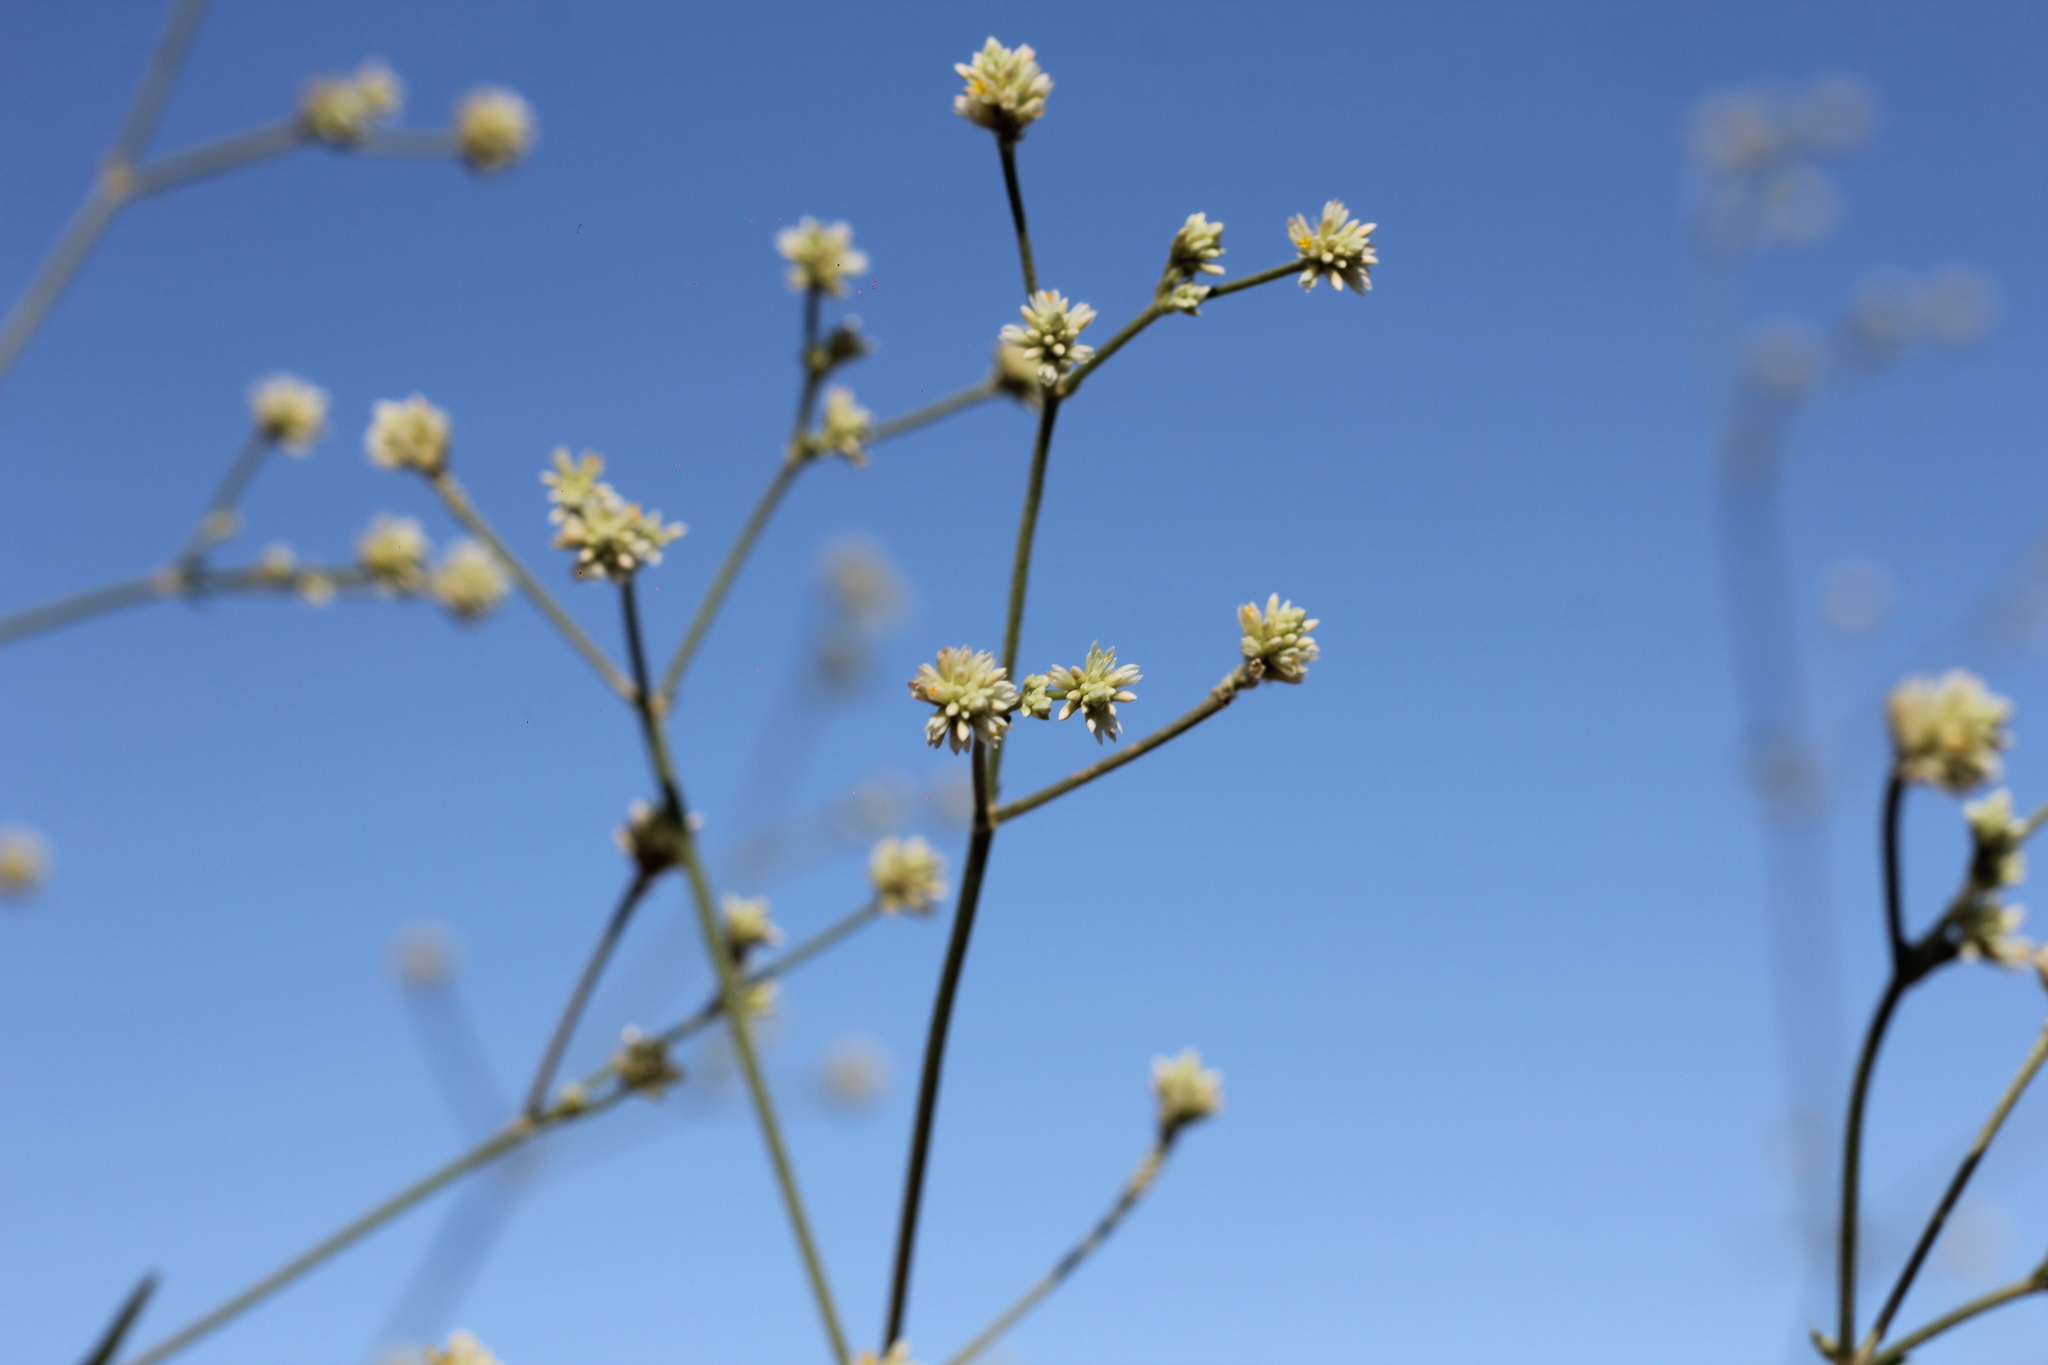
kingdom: Plantae
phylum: Tracheophyta
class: Magnoliopsida
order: Caryophyllales
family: Amaranthaceae
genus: Pfaffia
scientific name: Pfaffia glomerata
